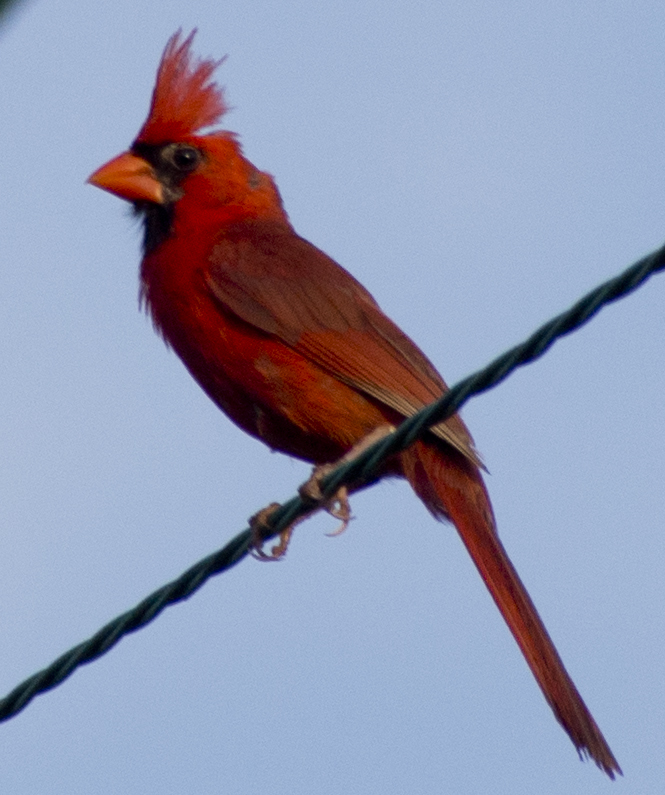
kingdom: Animalia
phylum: Chordata
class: Aves
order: Passeriformes
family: Cardinalidae
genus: Cardinalis
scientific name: Cardinalis cardinalis
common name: Northern cardinal
